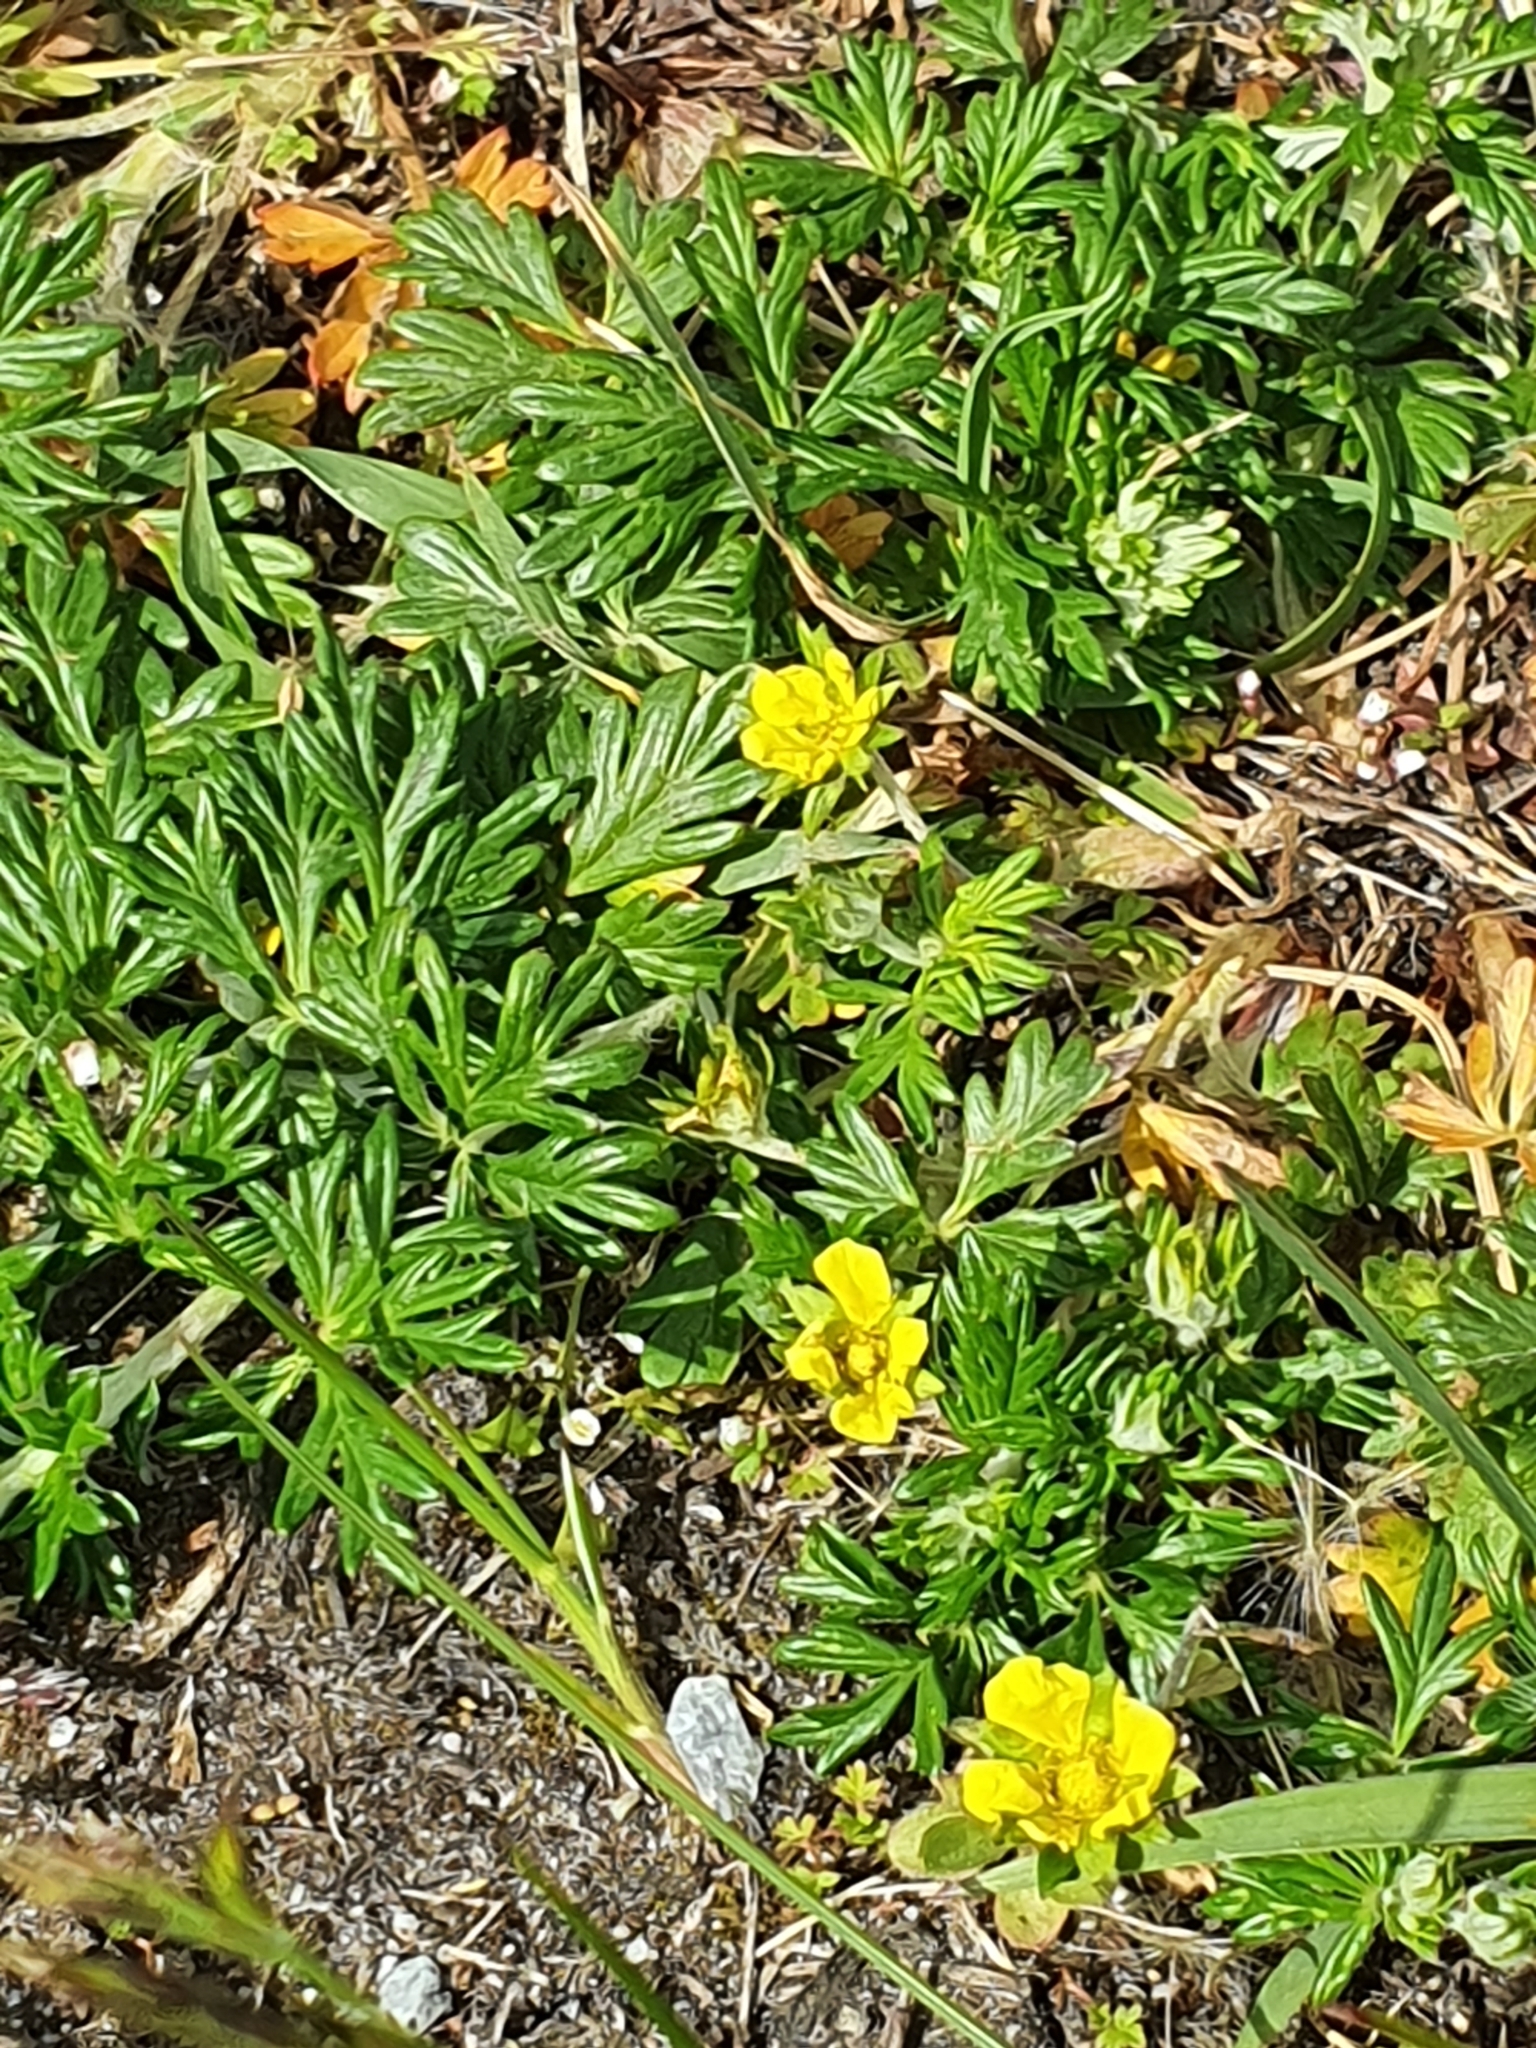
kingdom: Plantae
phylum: Tracheophyta
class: Magnoliopsida
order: Rosales
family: Rosaceae
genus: Potentilla
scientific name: Potentilla argentea
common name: Hoary cinquefoil
